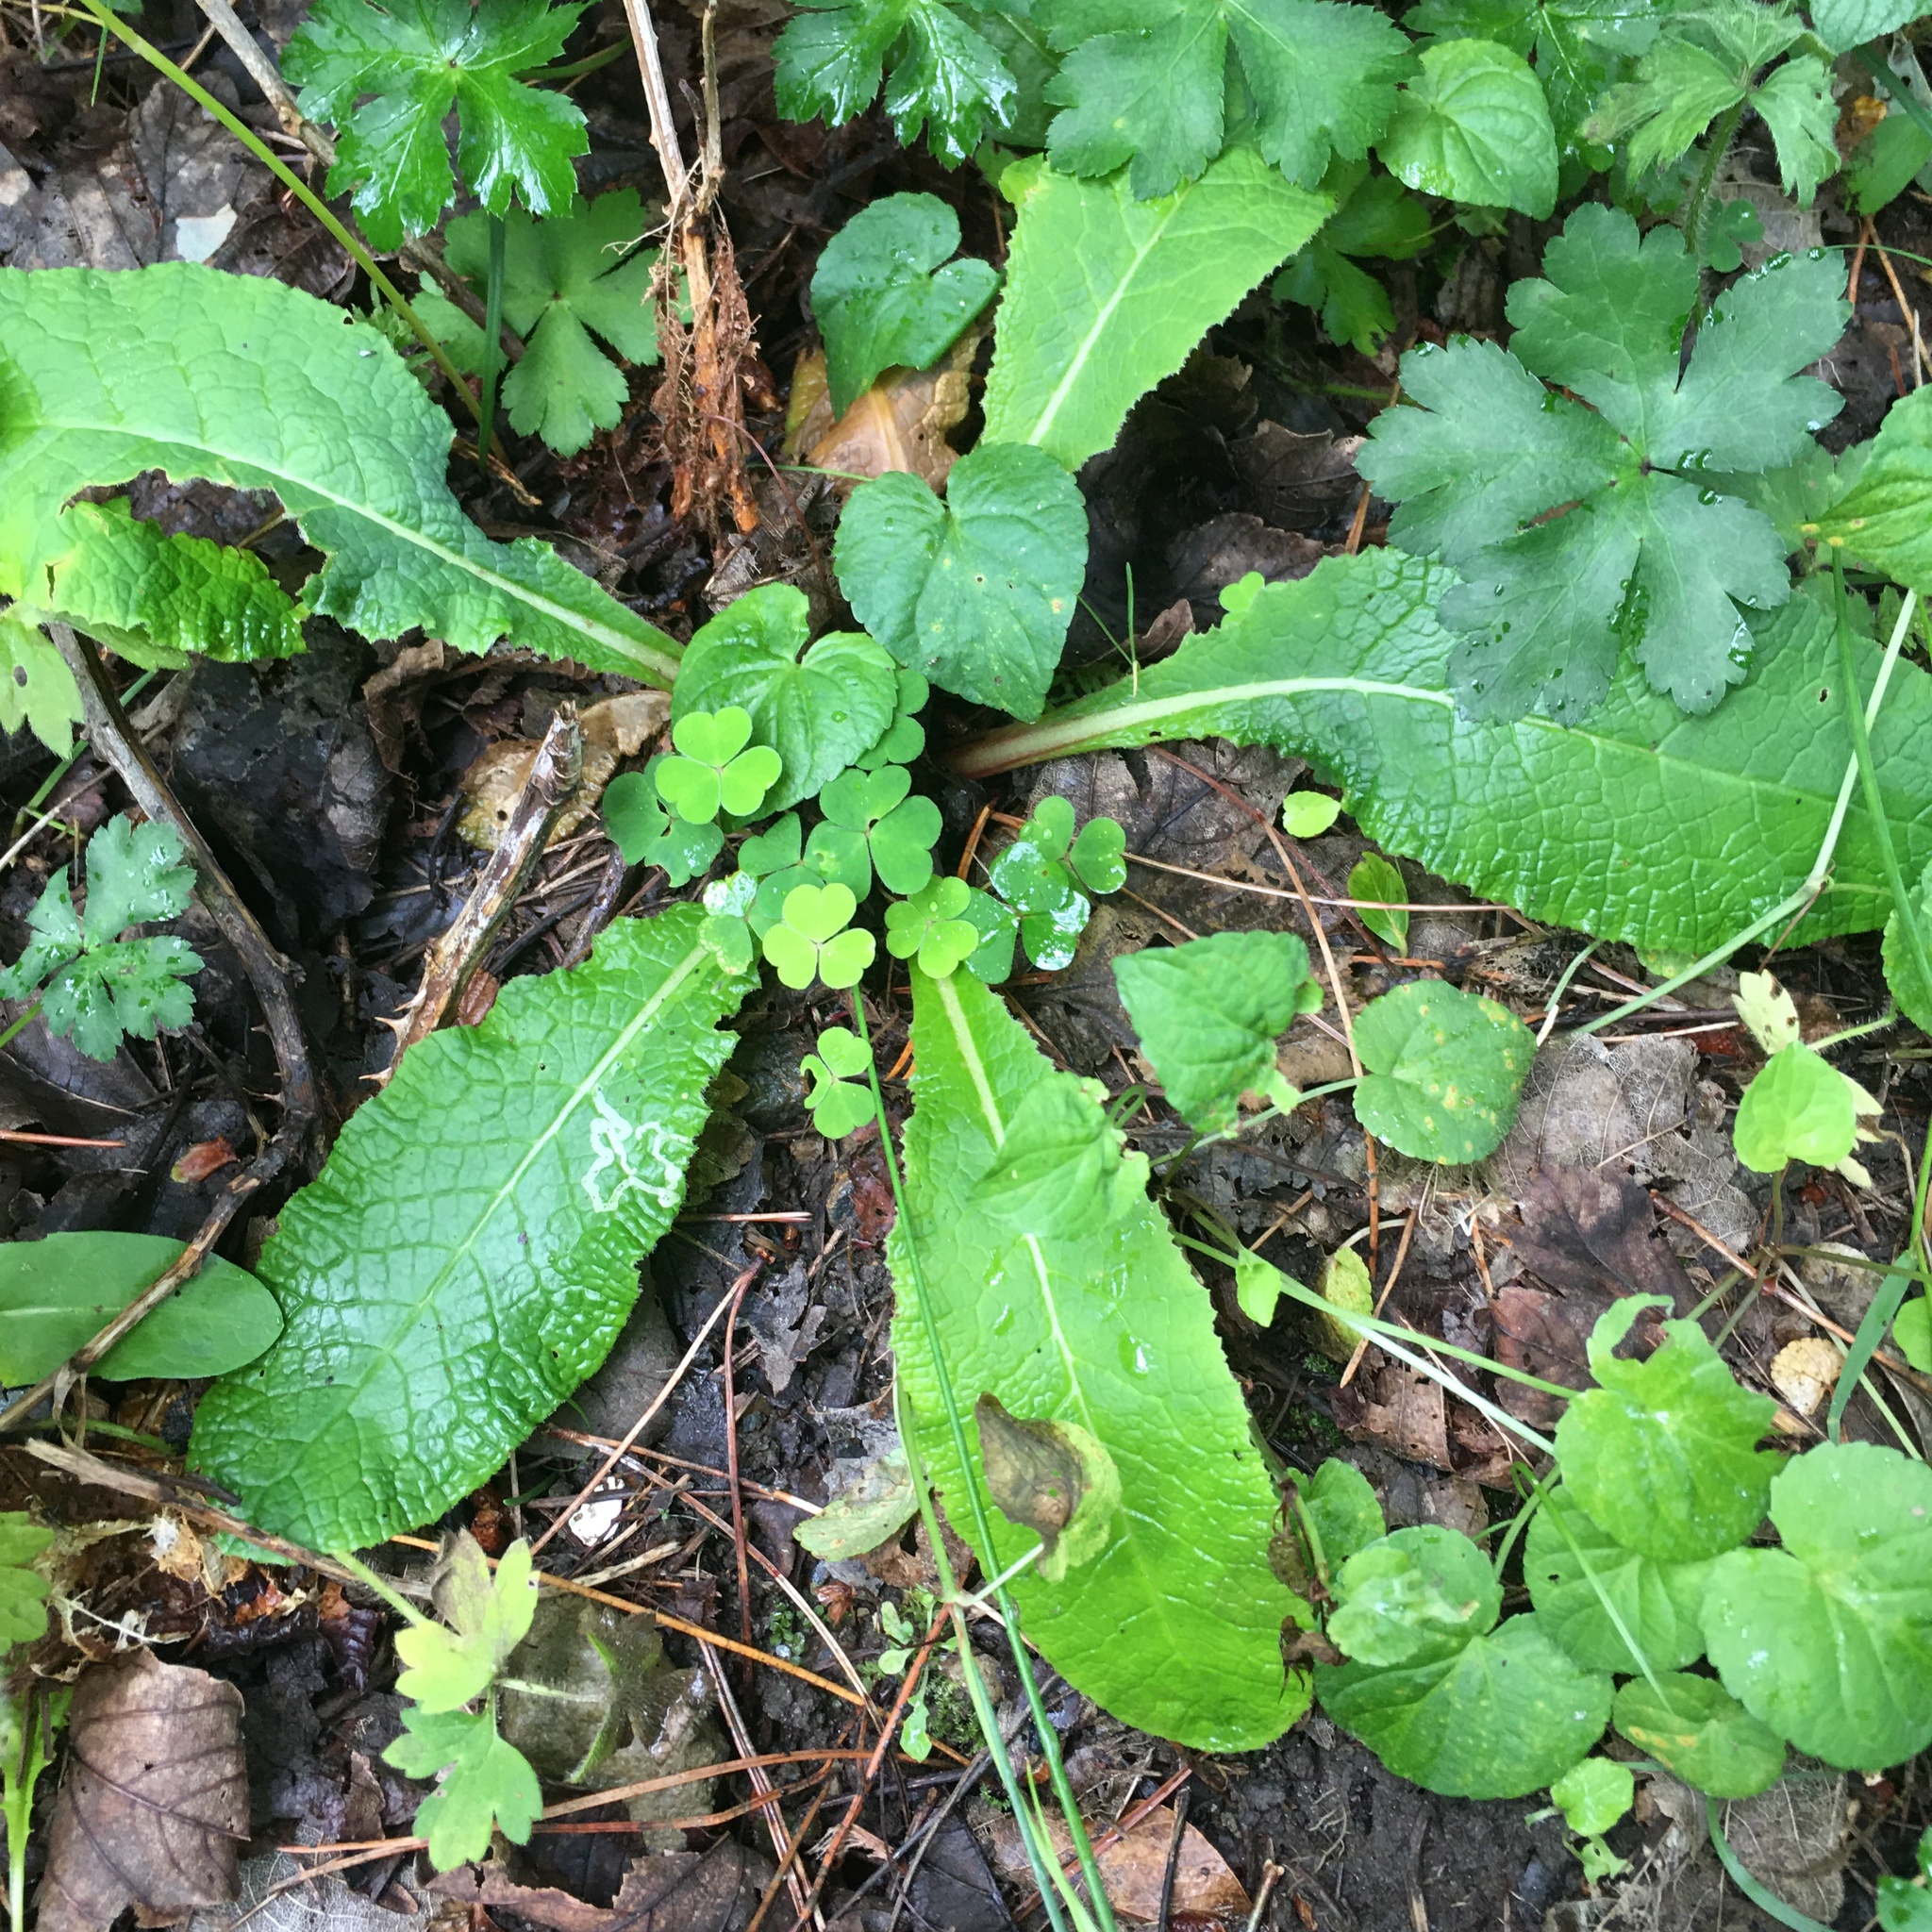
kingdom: Plantae
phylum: Tracheophyta
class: Magnoliopsida
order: Ericales
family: Primulaceae
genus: Primula
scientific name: Primula vulgaris
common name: Primrose
